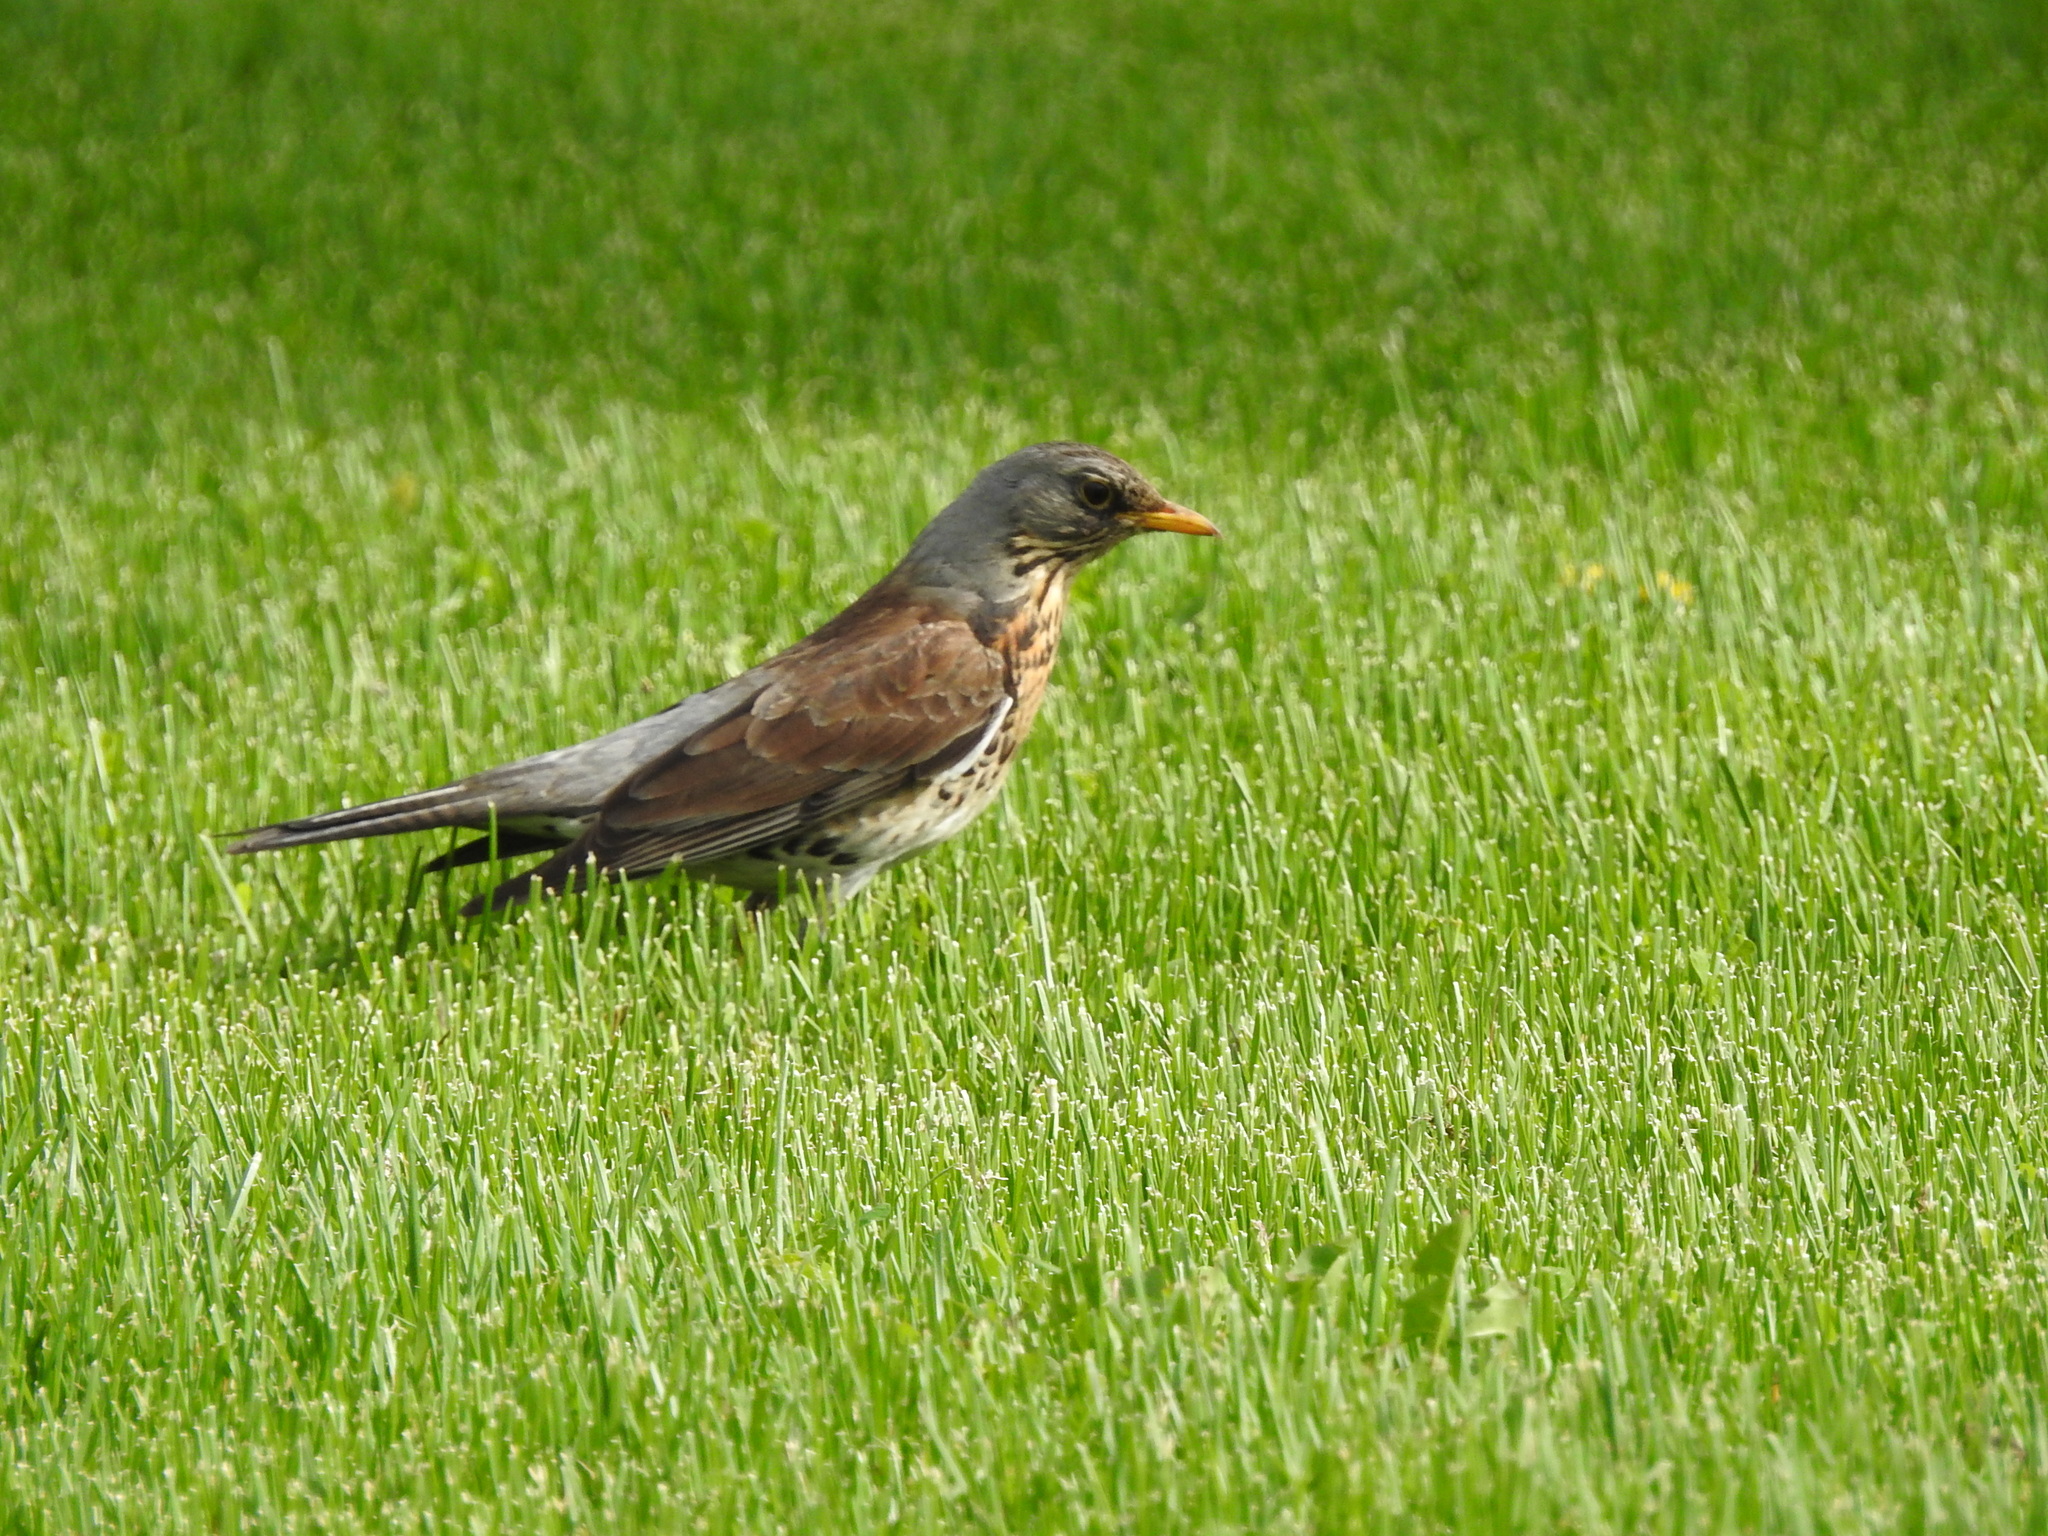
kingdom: Animalia
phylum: Chordata
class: Aves
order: Passeriformes
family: Turdidae
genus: Turdus
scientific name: Turdus pilaris
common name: Fieldfare
